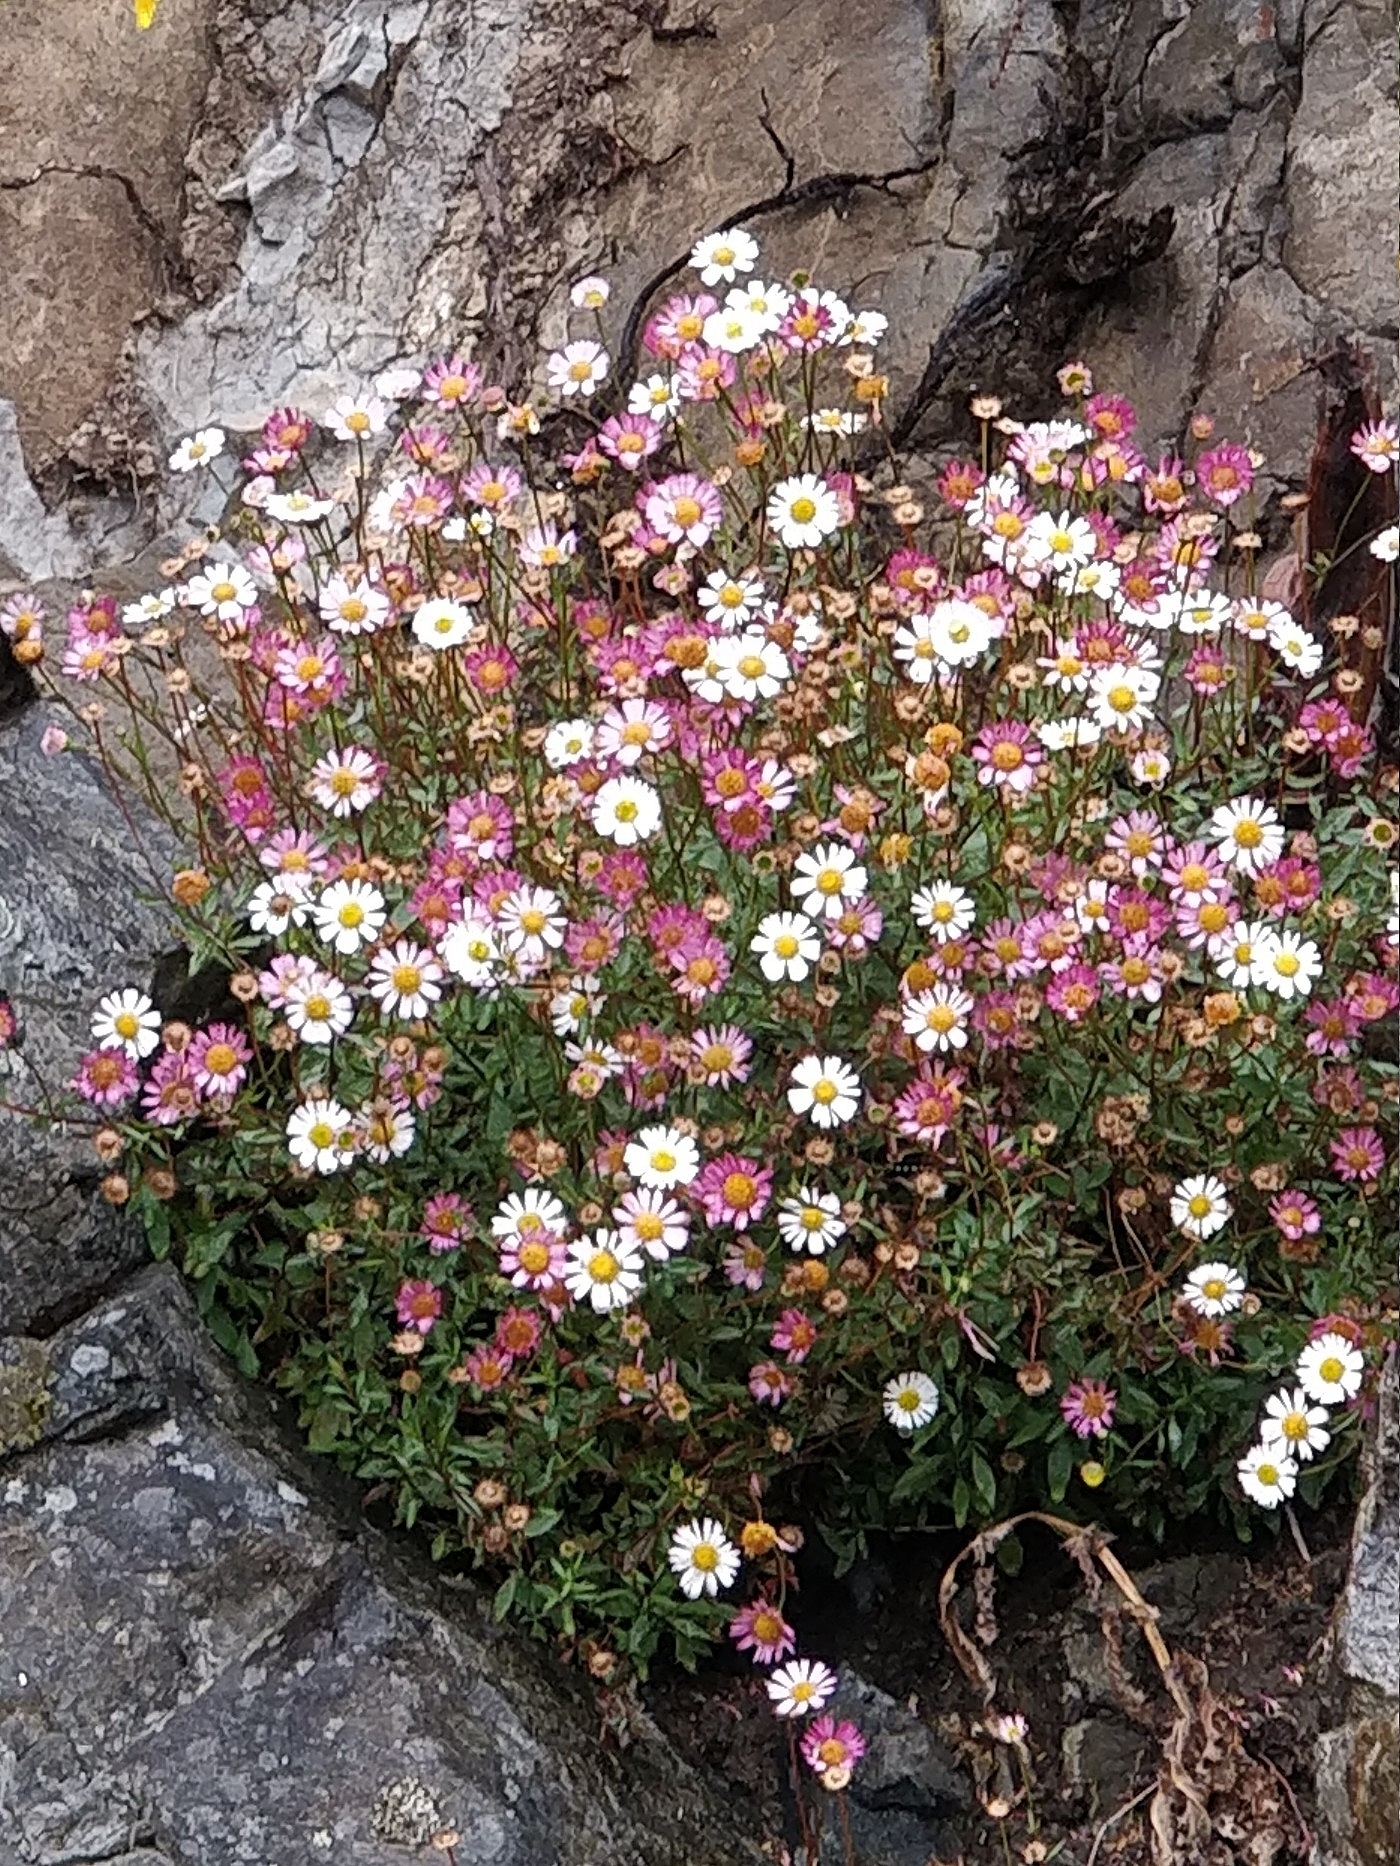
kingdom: Plantae
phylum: Tracheophyta
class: Magnoliopsida
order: Asterales
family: Asteraceae
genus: Erigeron
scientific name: Erigeron karvinskianus
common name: Mexican fleabane
